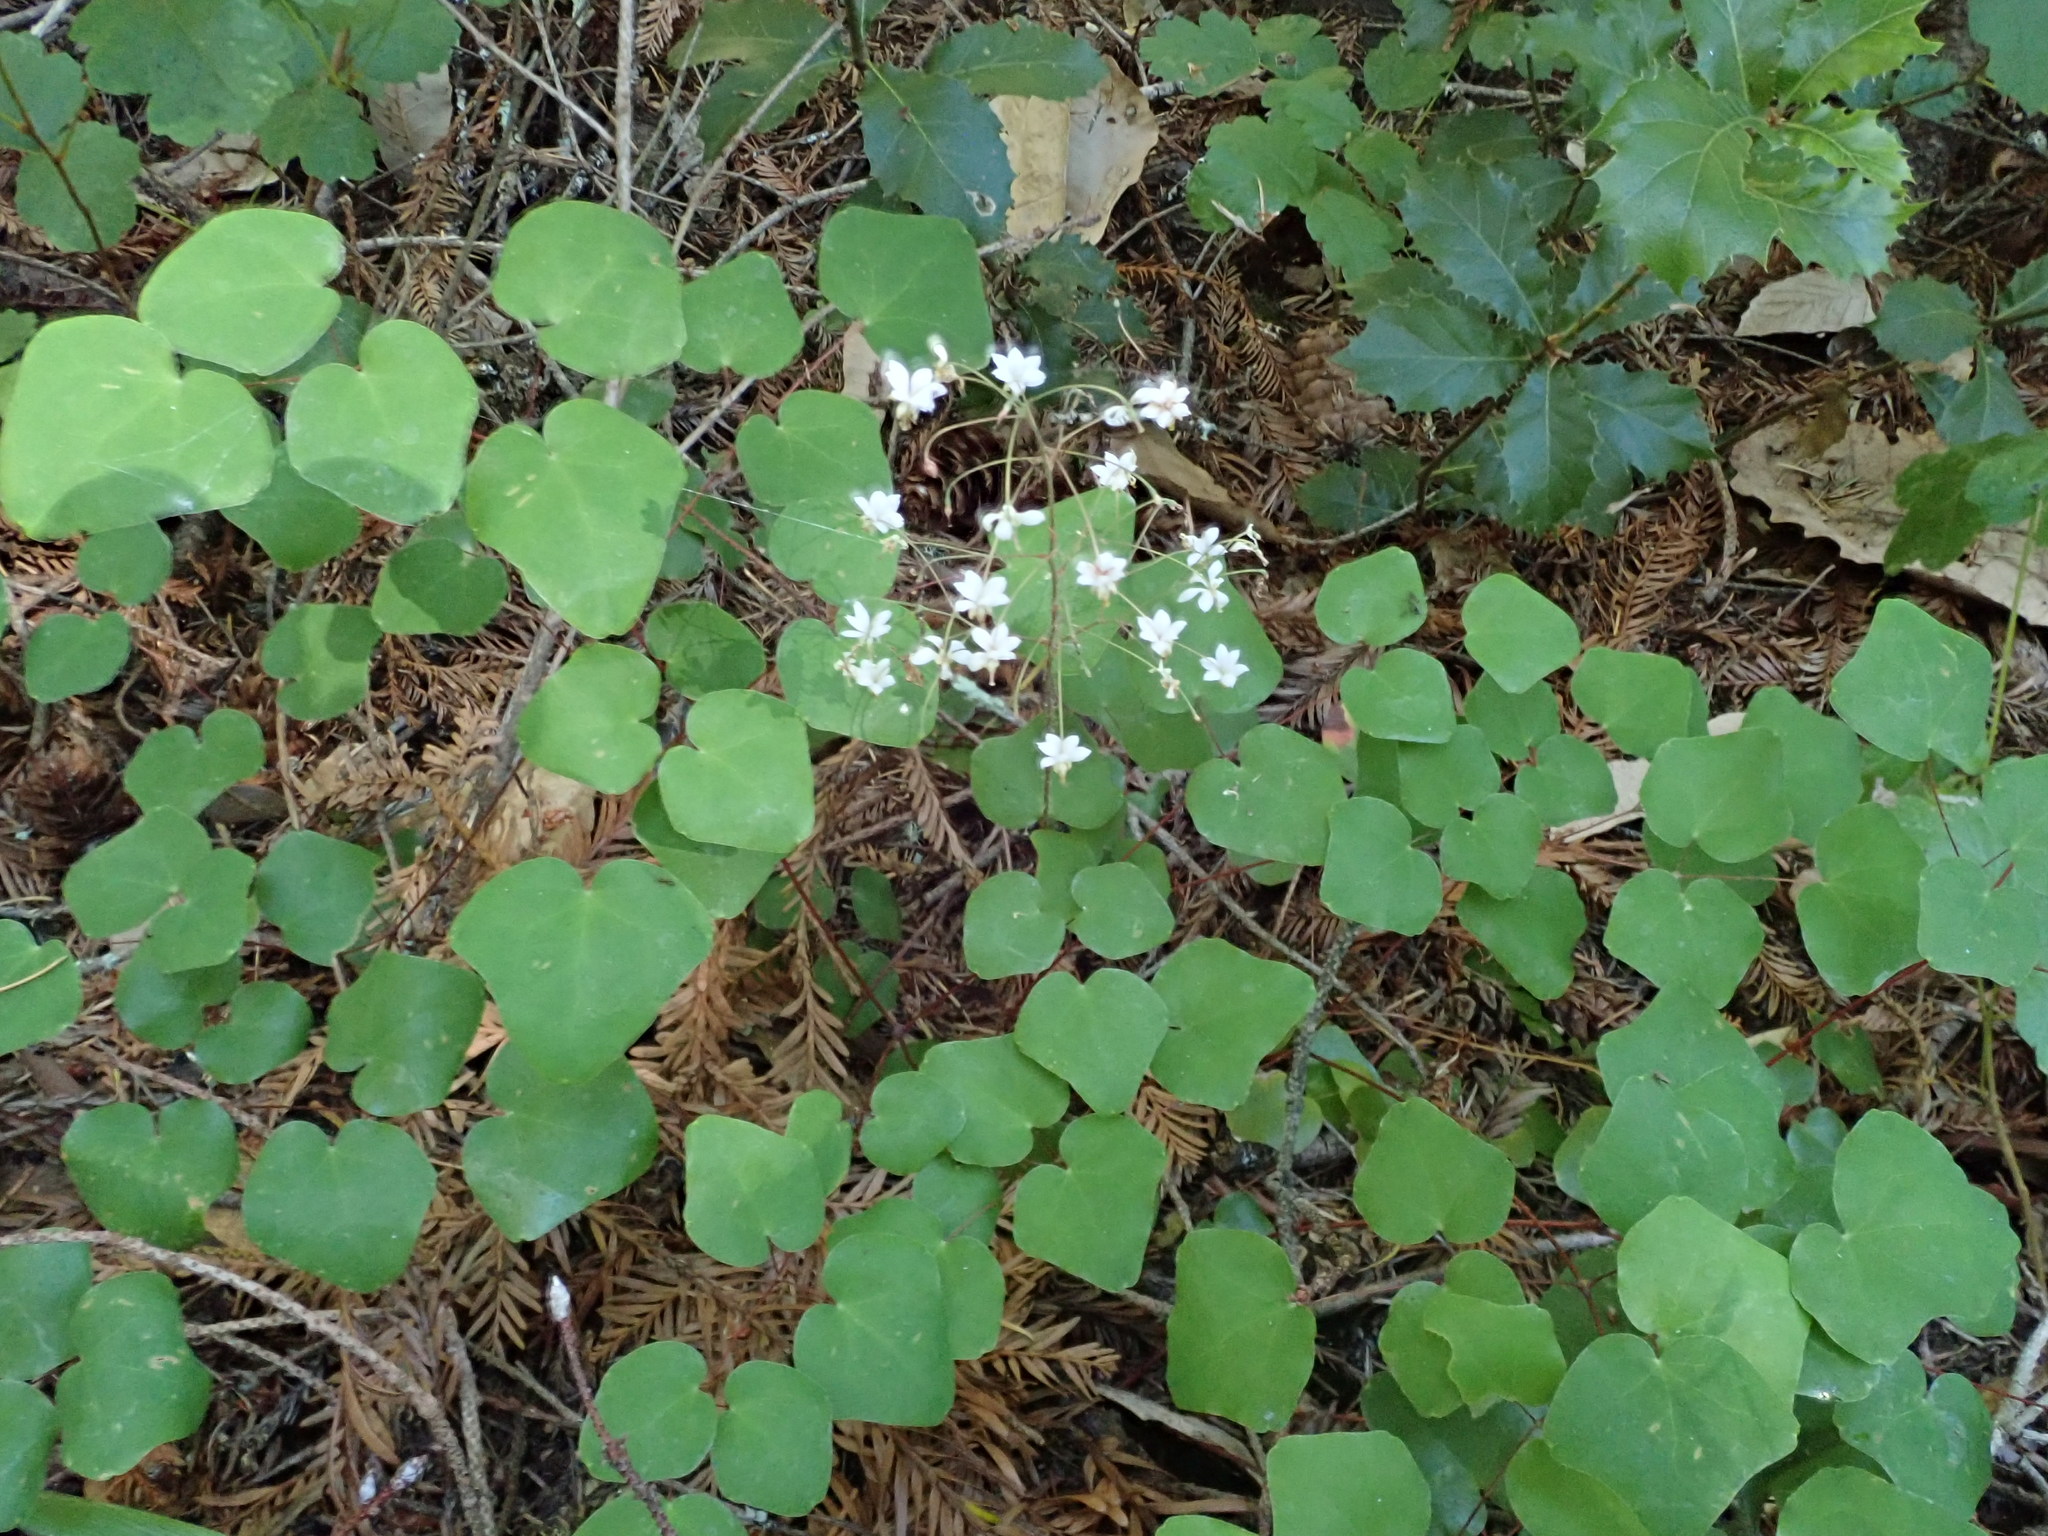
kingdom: Plantae
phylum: Tracheophyta
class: Magnoliopsida
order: Ranunculales
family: Berberidaceae
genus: Vancouveria
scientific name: Vancouveria planipetala
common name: Redwood-ivy
